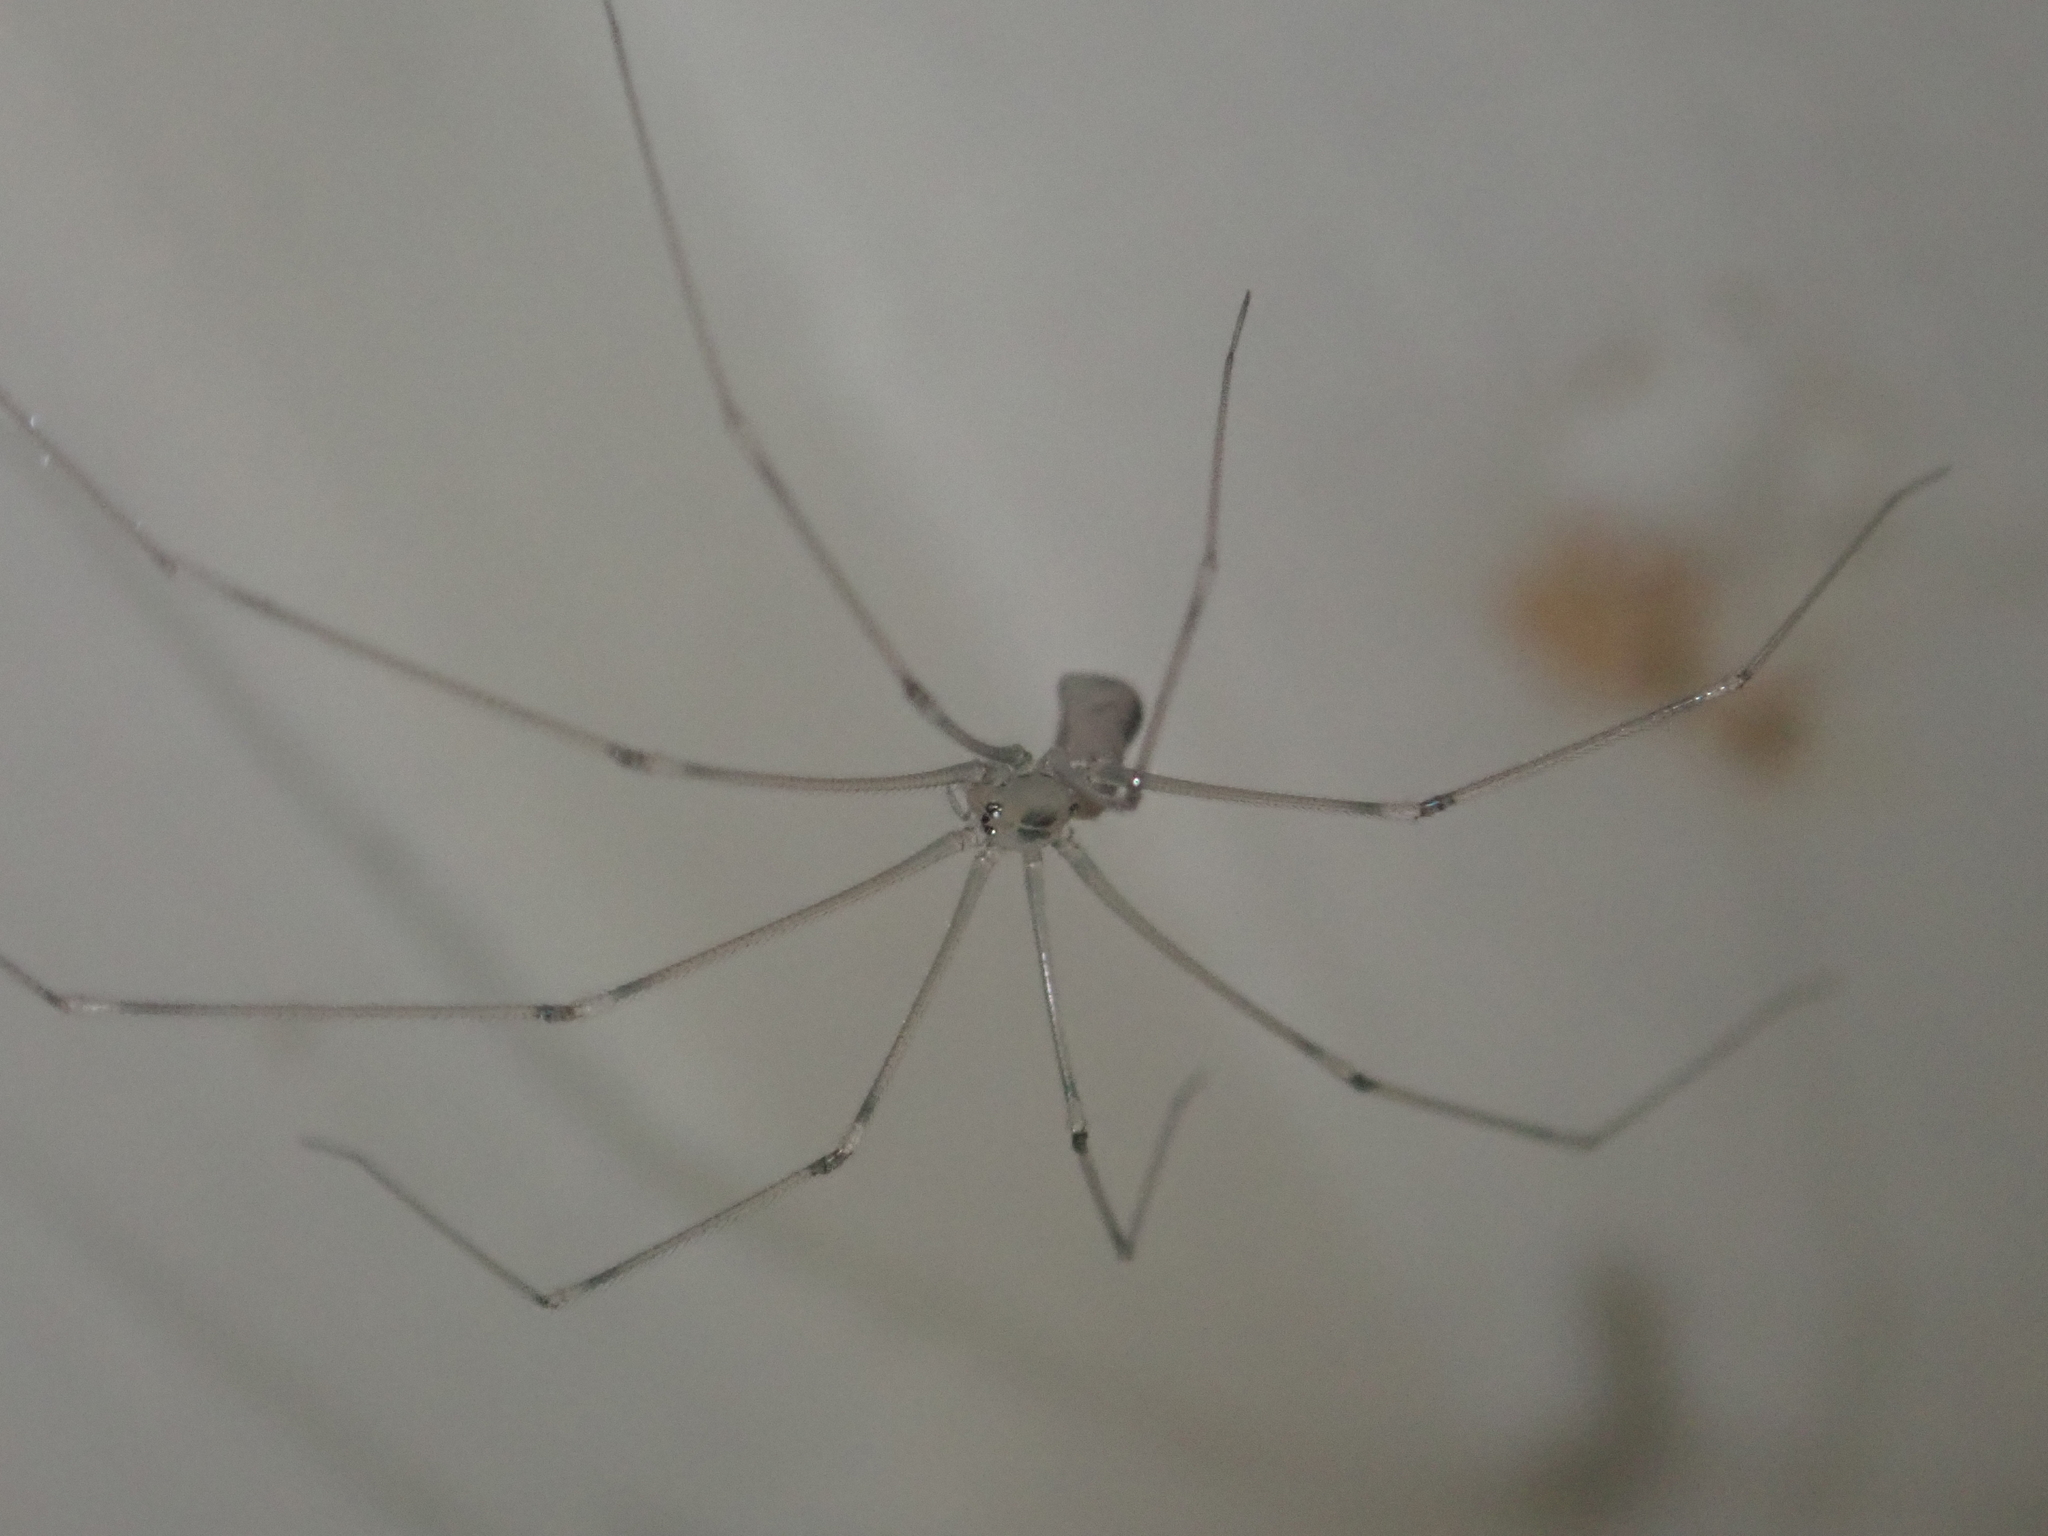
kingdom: Animalia
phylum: Arthropoda
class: Arachnida
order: Araneae
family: Pholcidae
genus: Pholcus
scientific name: Pholcus phalangioides
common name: Longbodied cellar spider
